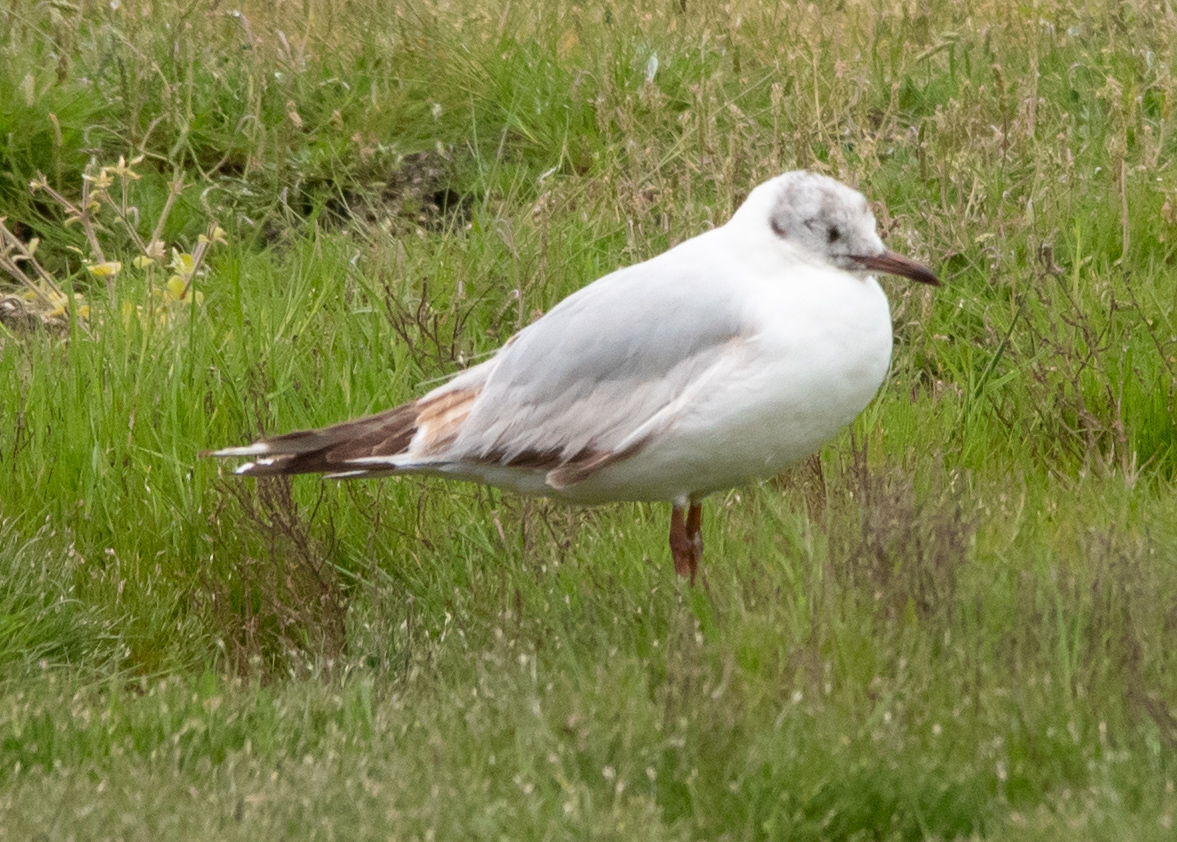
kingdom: Animalia
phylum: Chordata
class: Aves
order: Charadriiformes
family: Laridae
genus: Chroicocephalus
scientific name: Chroicocephalus ridibundus
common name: Black-headed gull
